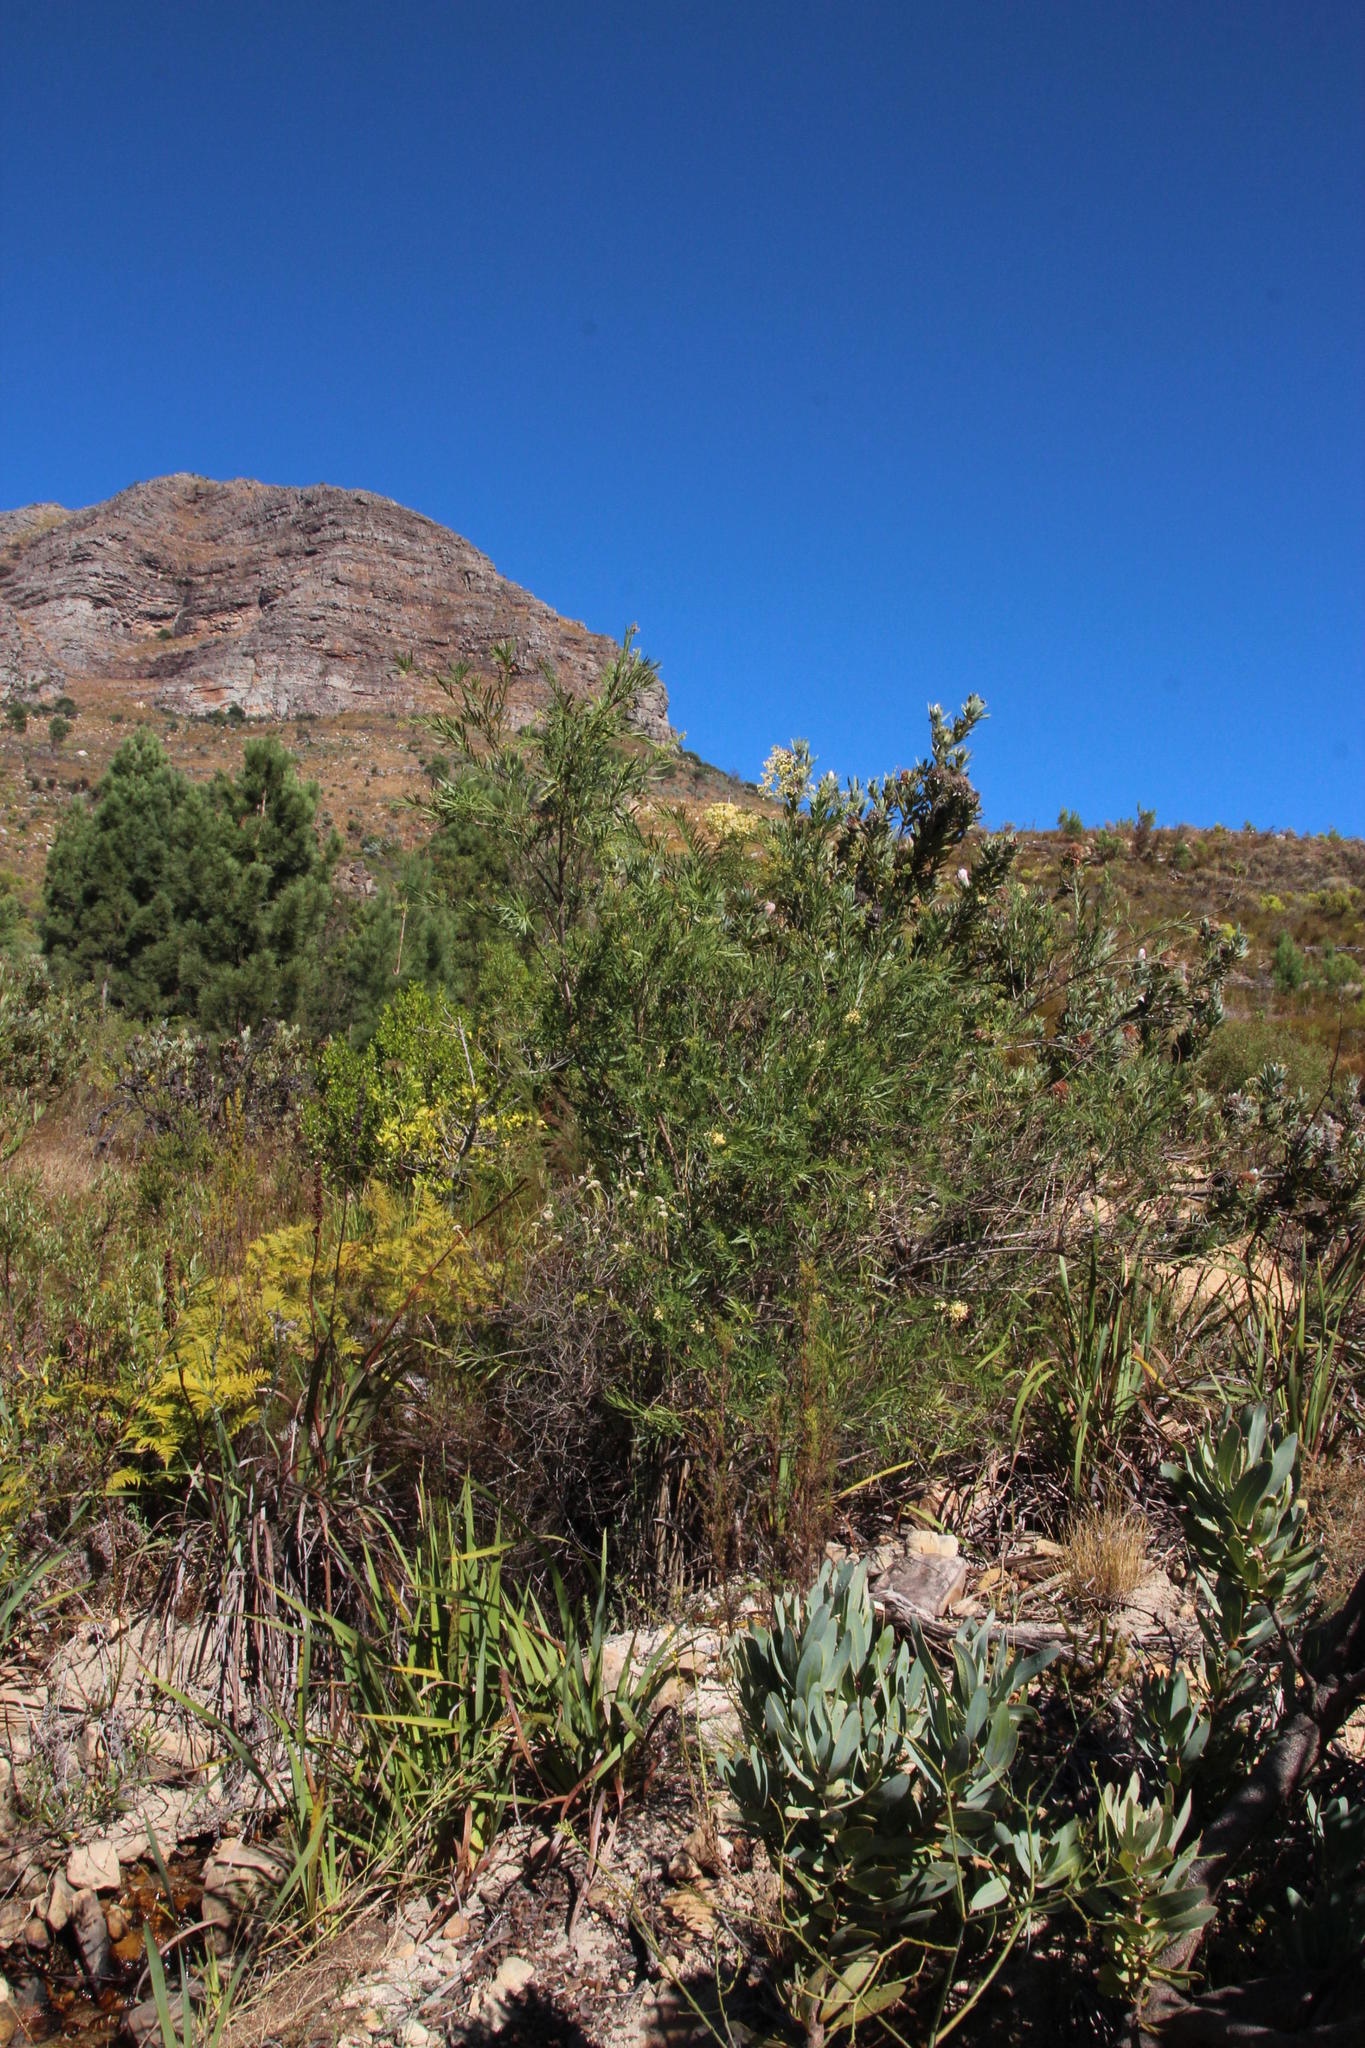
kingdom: Plantae
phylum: Tracheophyta
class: Magnoliopsida
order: Lamiales
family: Scrophulariaceae
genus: Freylinia
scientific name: Freylinia lanceolata
